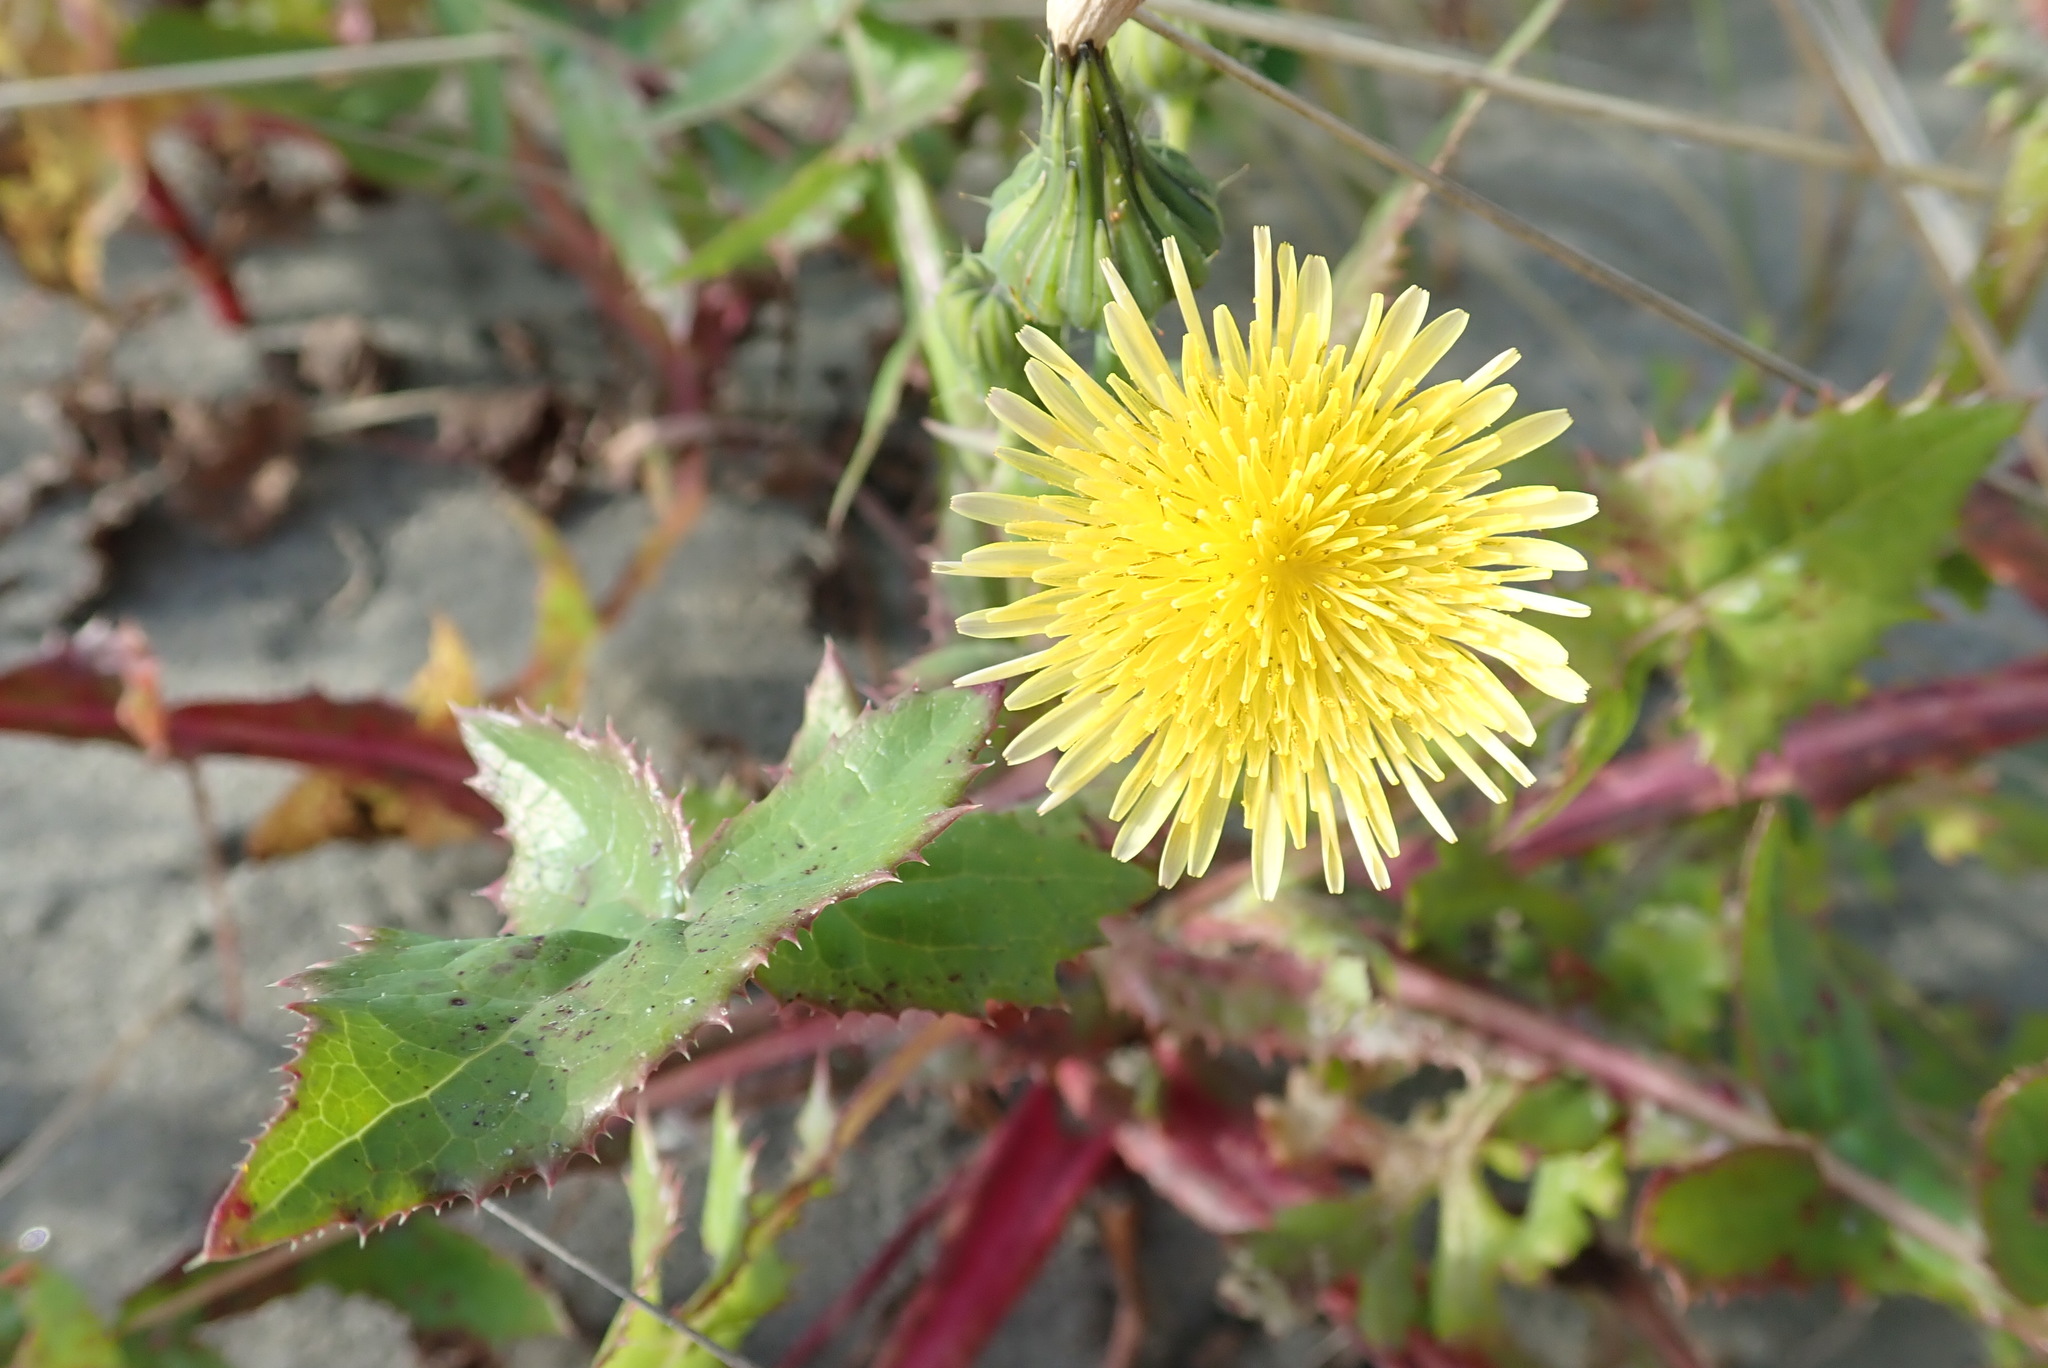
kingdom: Plantae
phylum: Tracheophyta
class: Magnoliopsida
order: Asterales
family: Asteraceae
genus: Sonchus
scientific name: Sonchus asper
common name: Prickly sow-thistle
